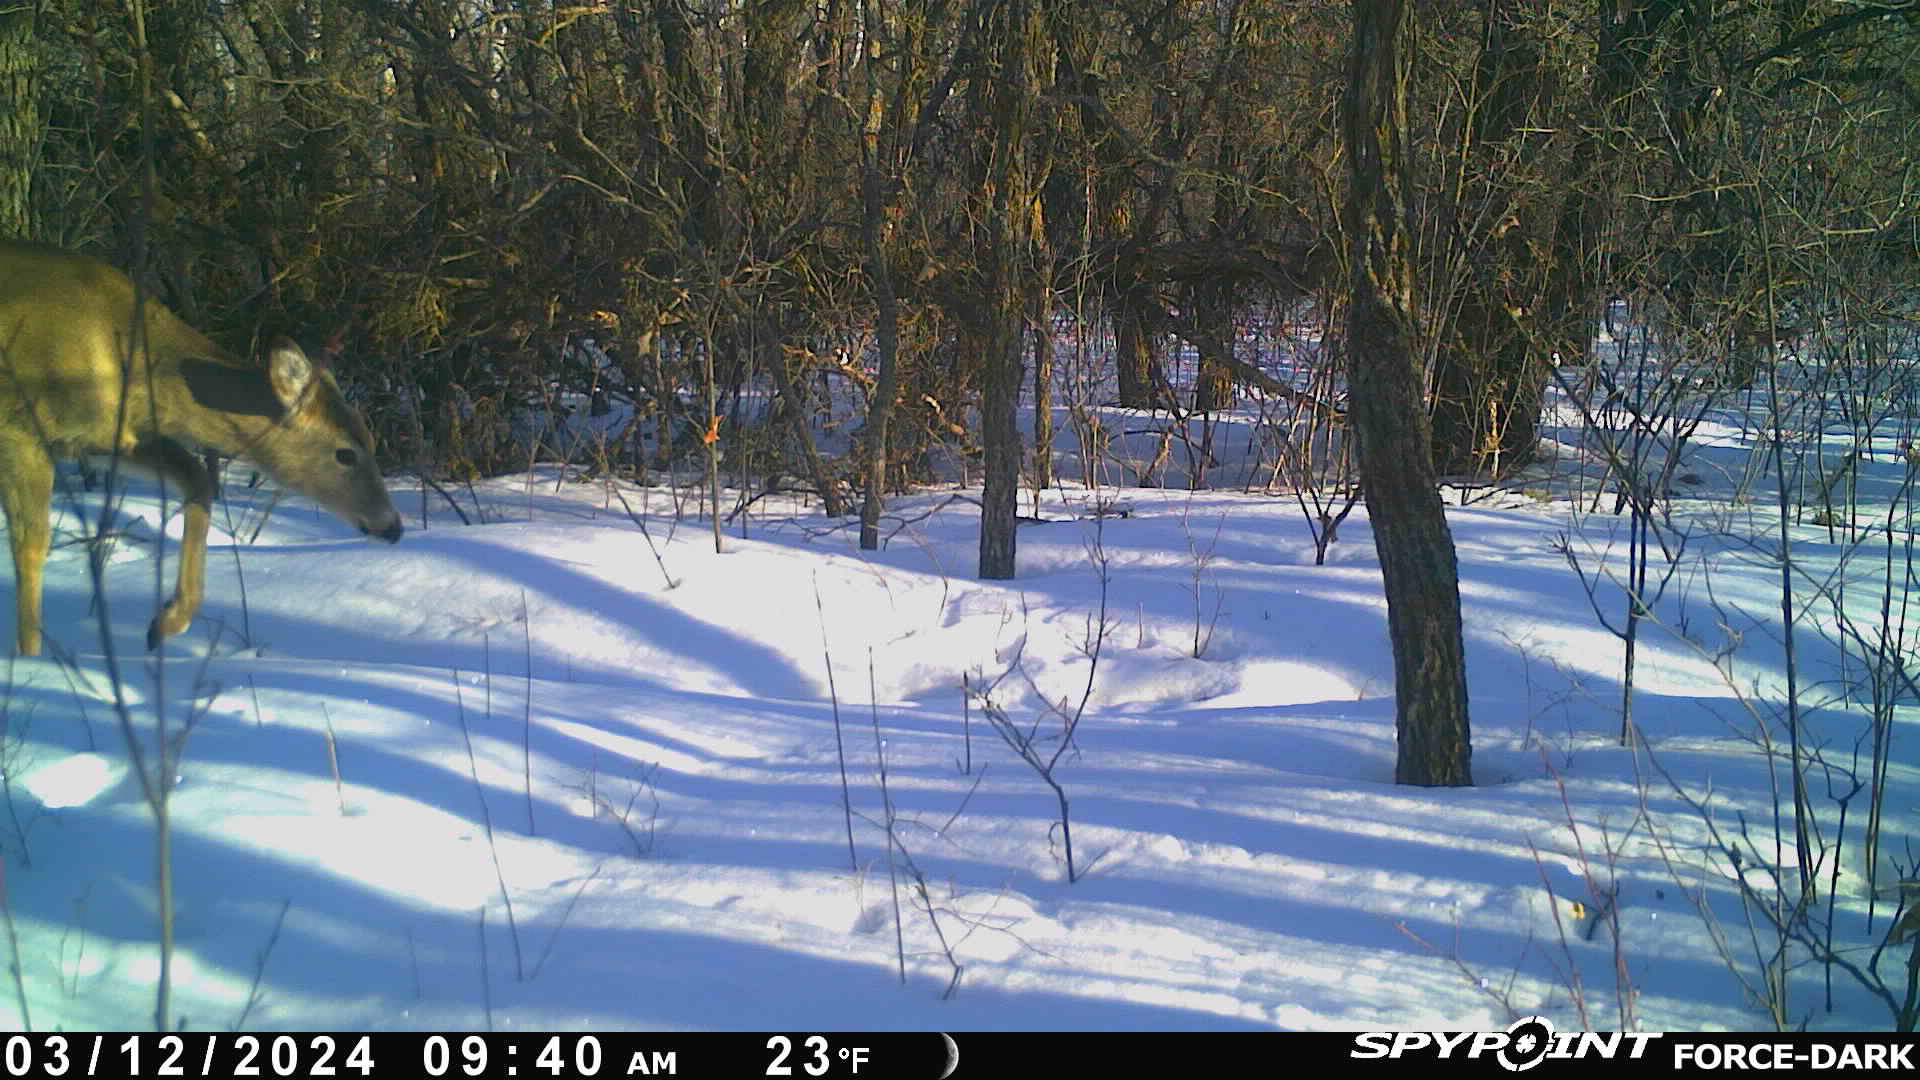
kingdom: Animalia
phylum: Chordata
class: Mammalia
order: Artiodactyla
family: Cervidae
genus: Odocoileus
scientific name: Odocoileus virginianus
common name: White-tailed deer
